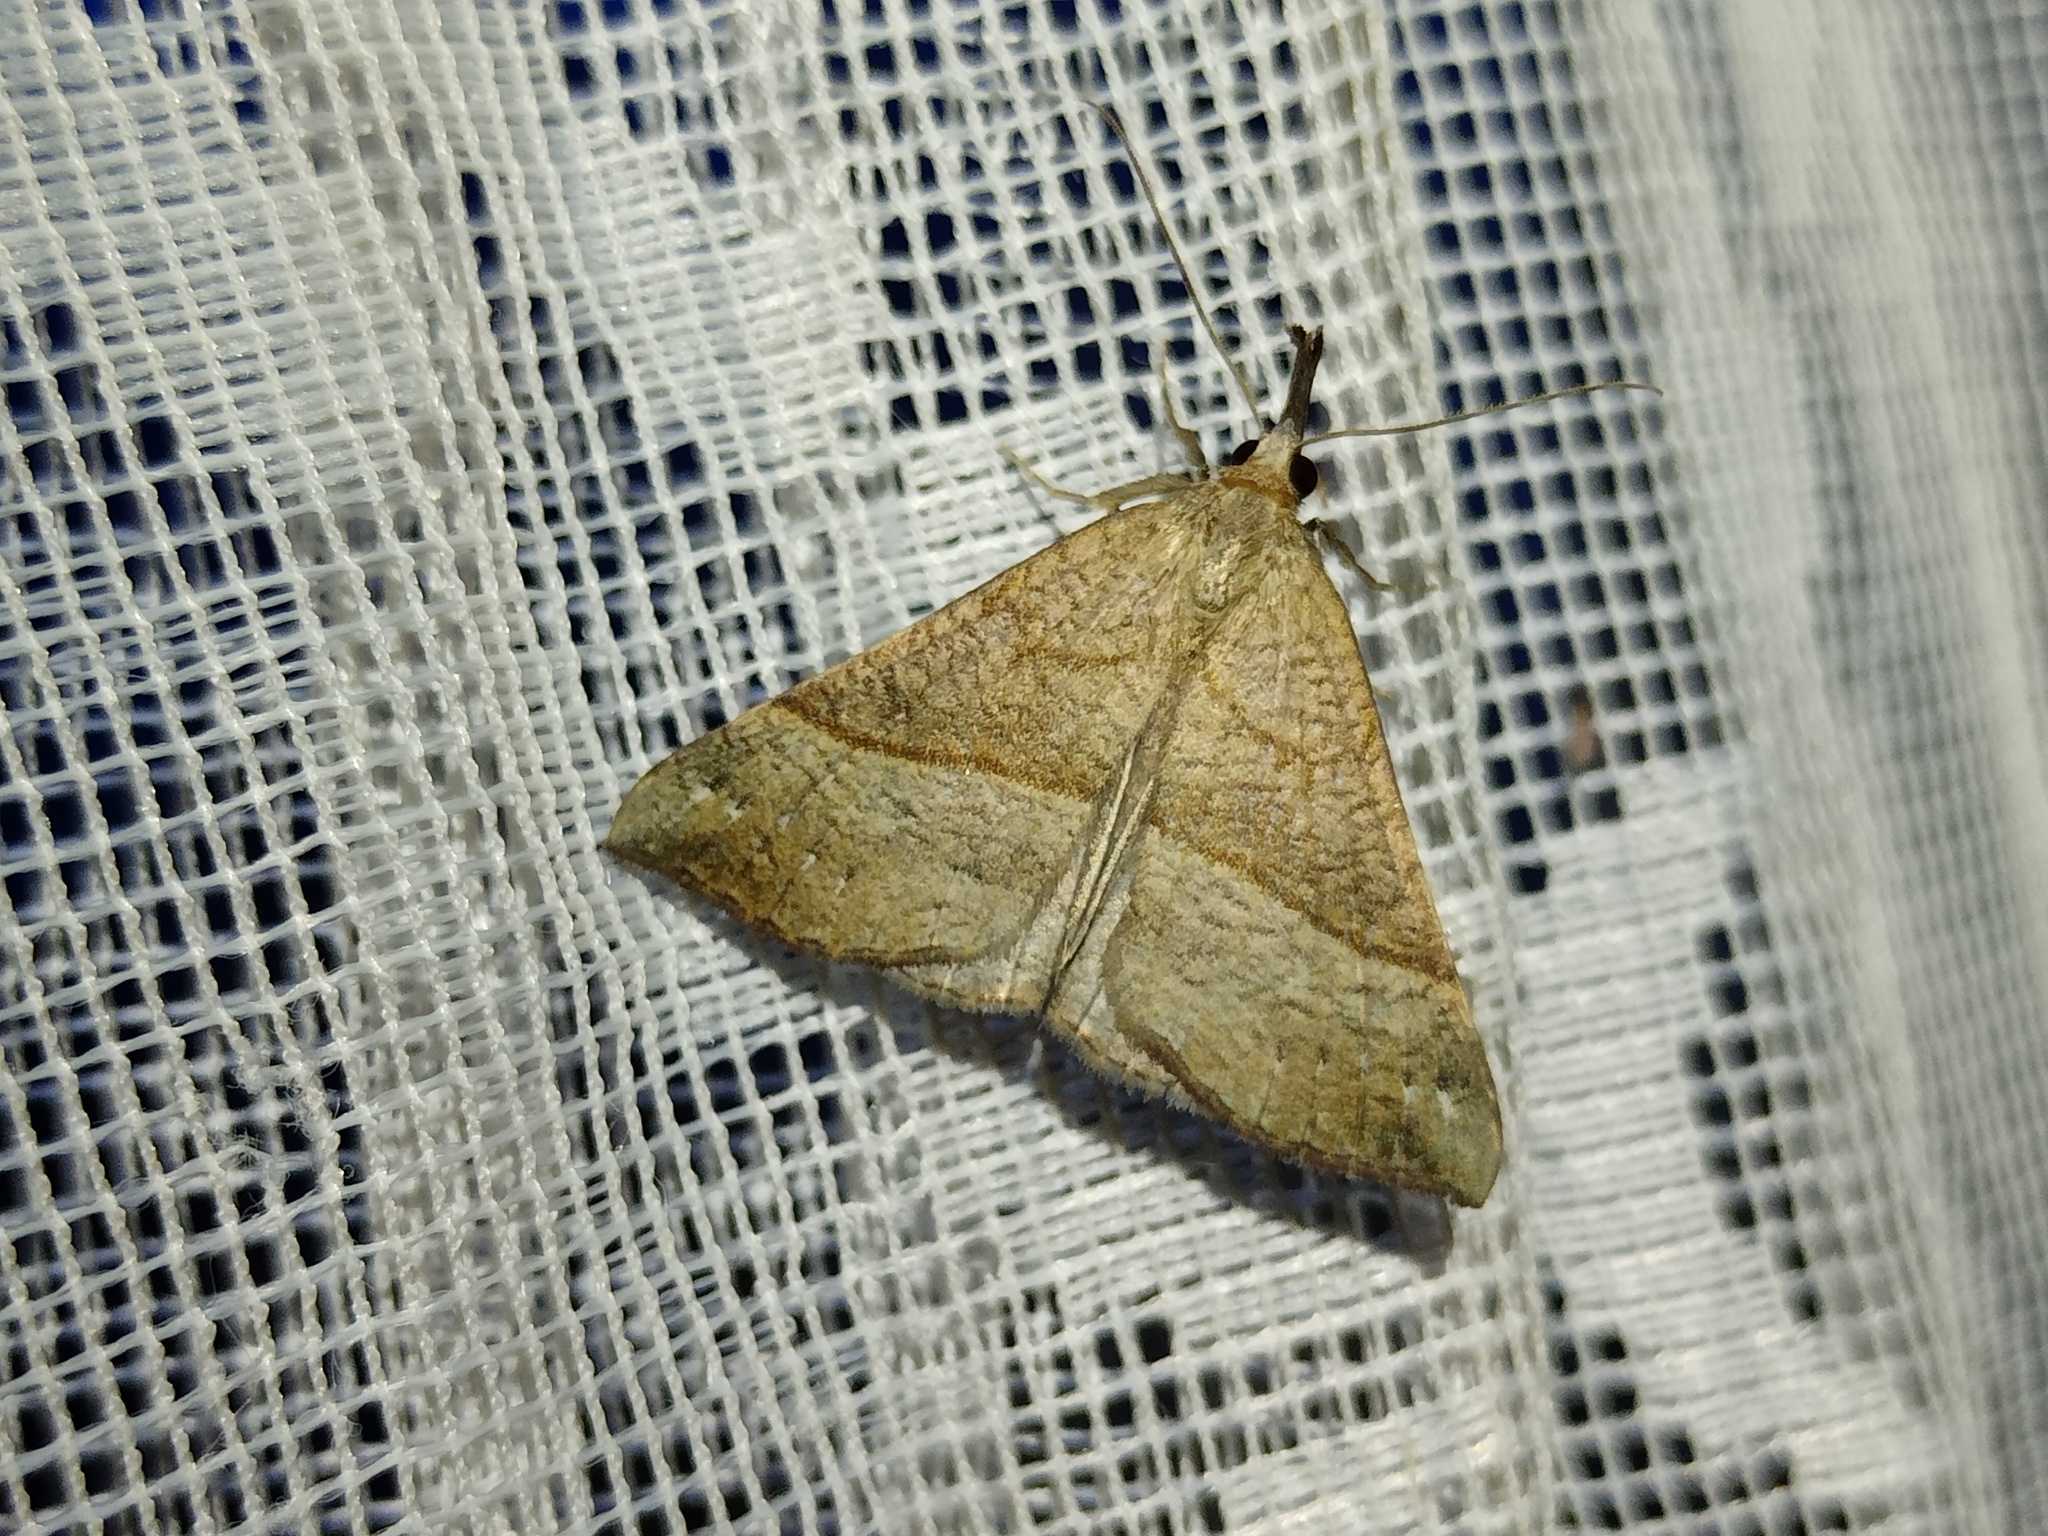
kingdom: Animalia
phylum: Arthropoda
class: Insecta
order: Lepidoptera
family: Erebidae
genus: Hypena
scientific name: Hypena proboscidalis
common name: Snout
